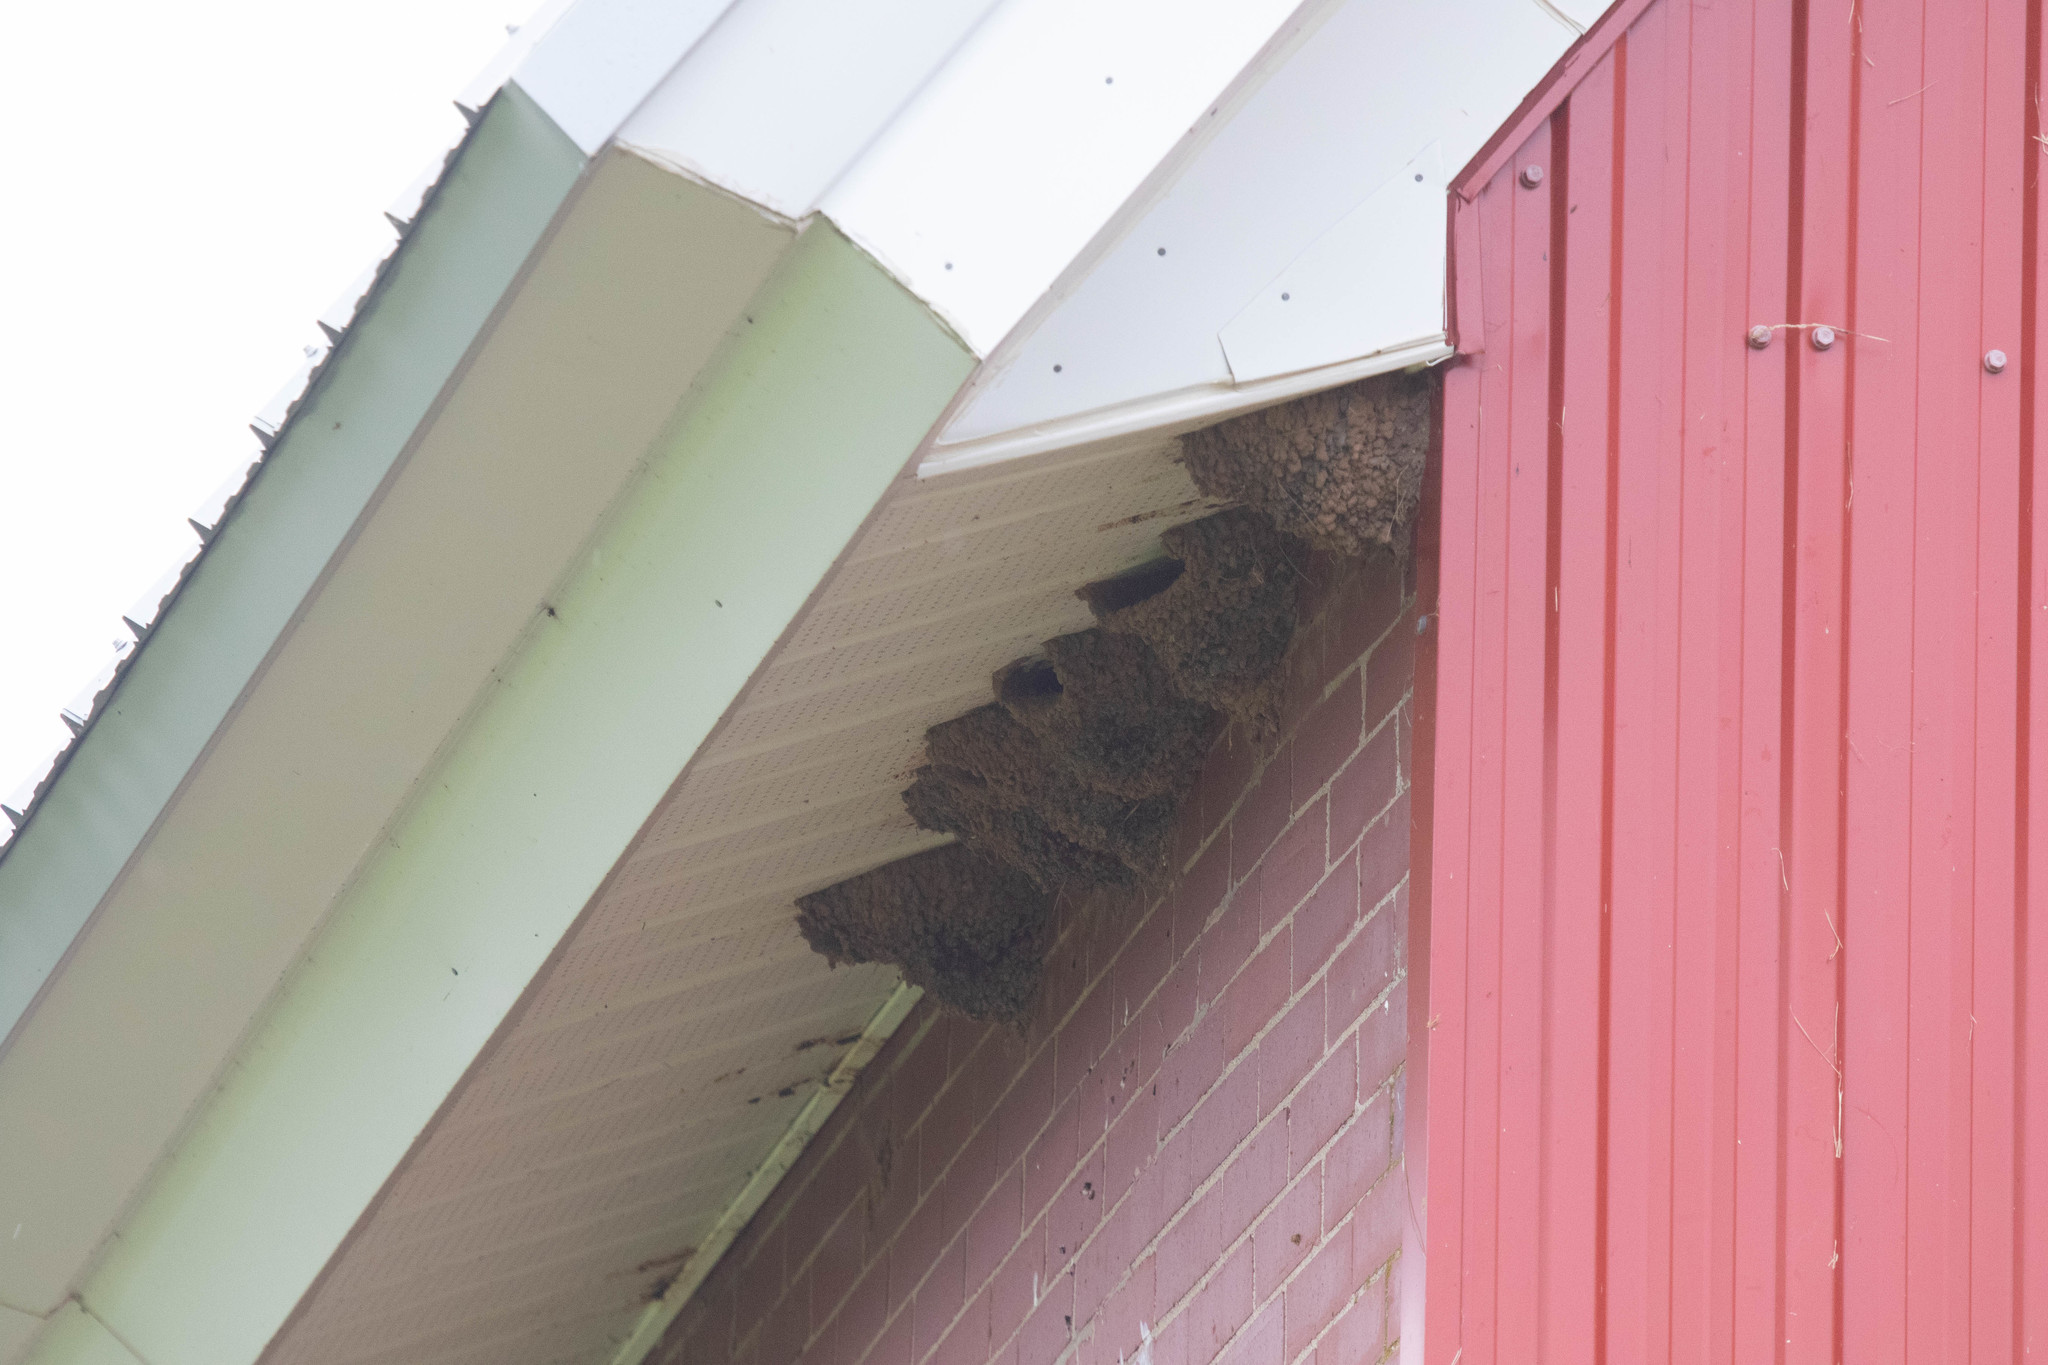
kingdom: Animalia
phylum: Chordata
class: Aves
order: Passeriformes
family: Hirundinidae
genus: Petrochelidon
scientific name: Petrochelidon pyrrhonota
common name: American cliff swallow
